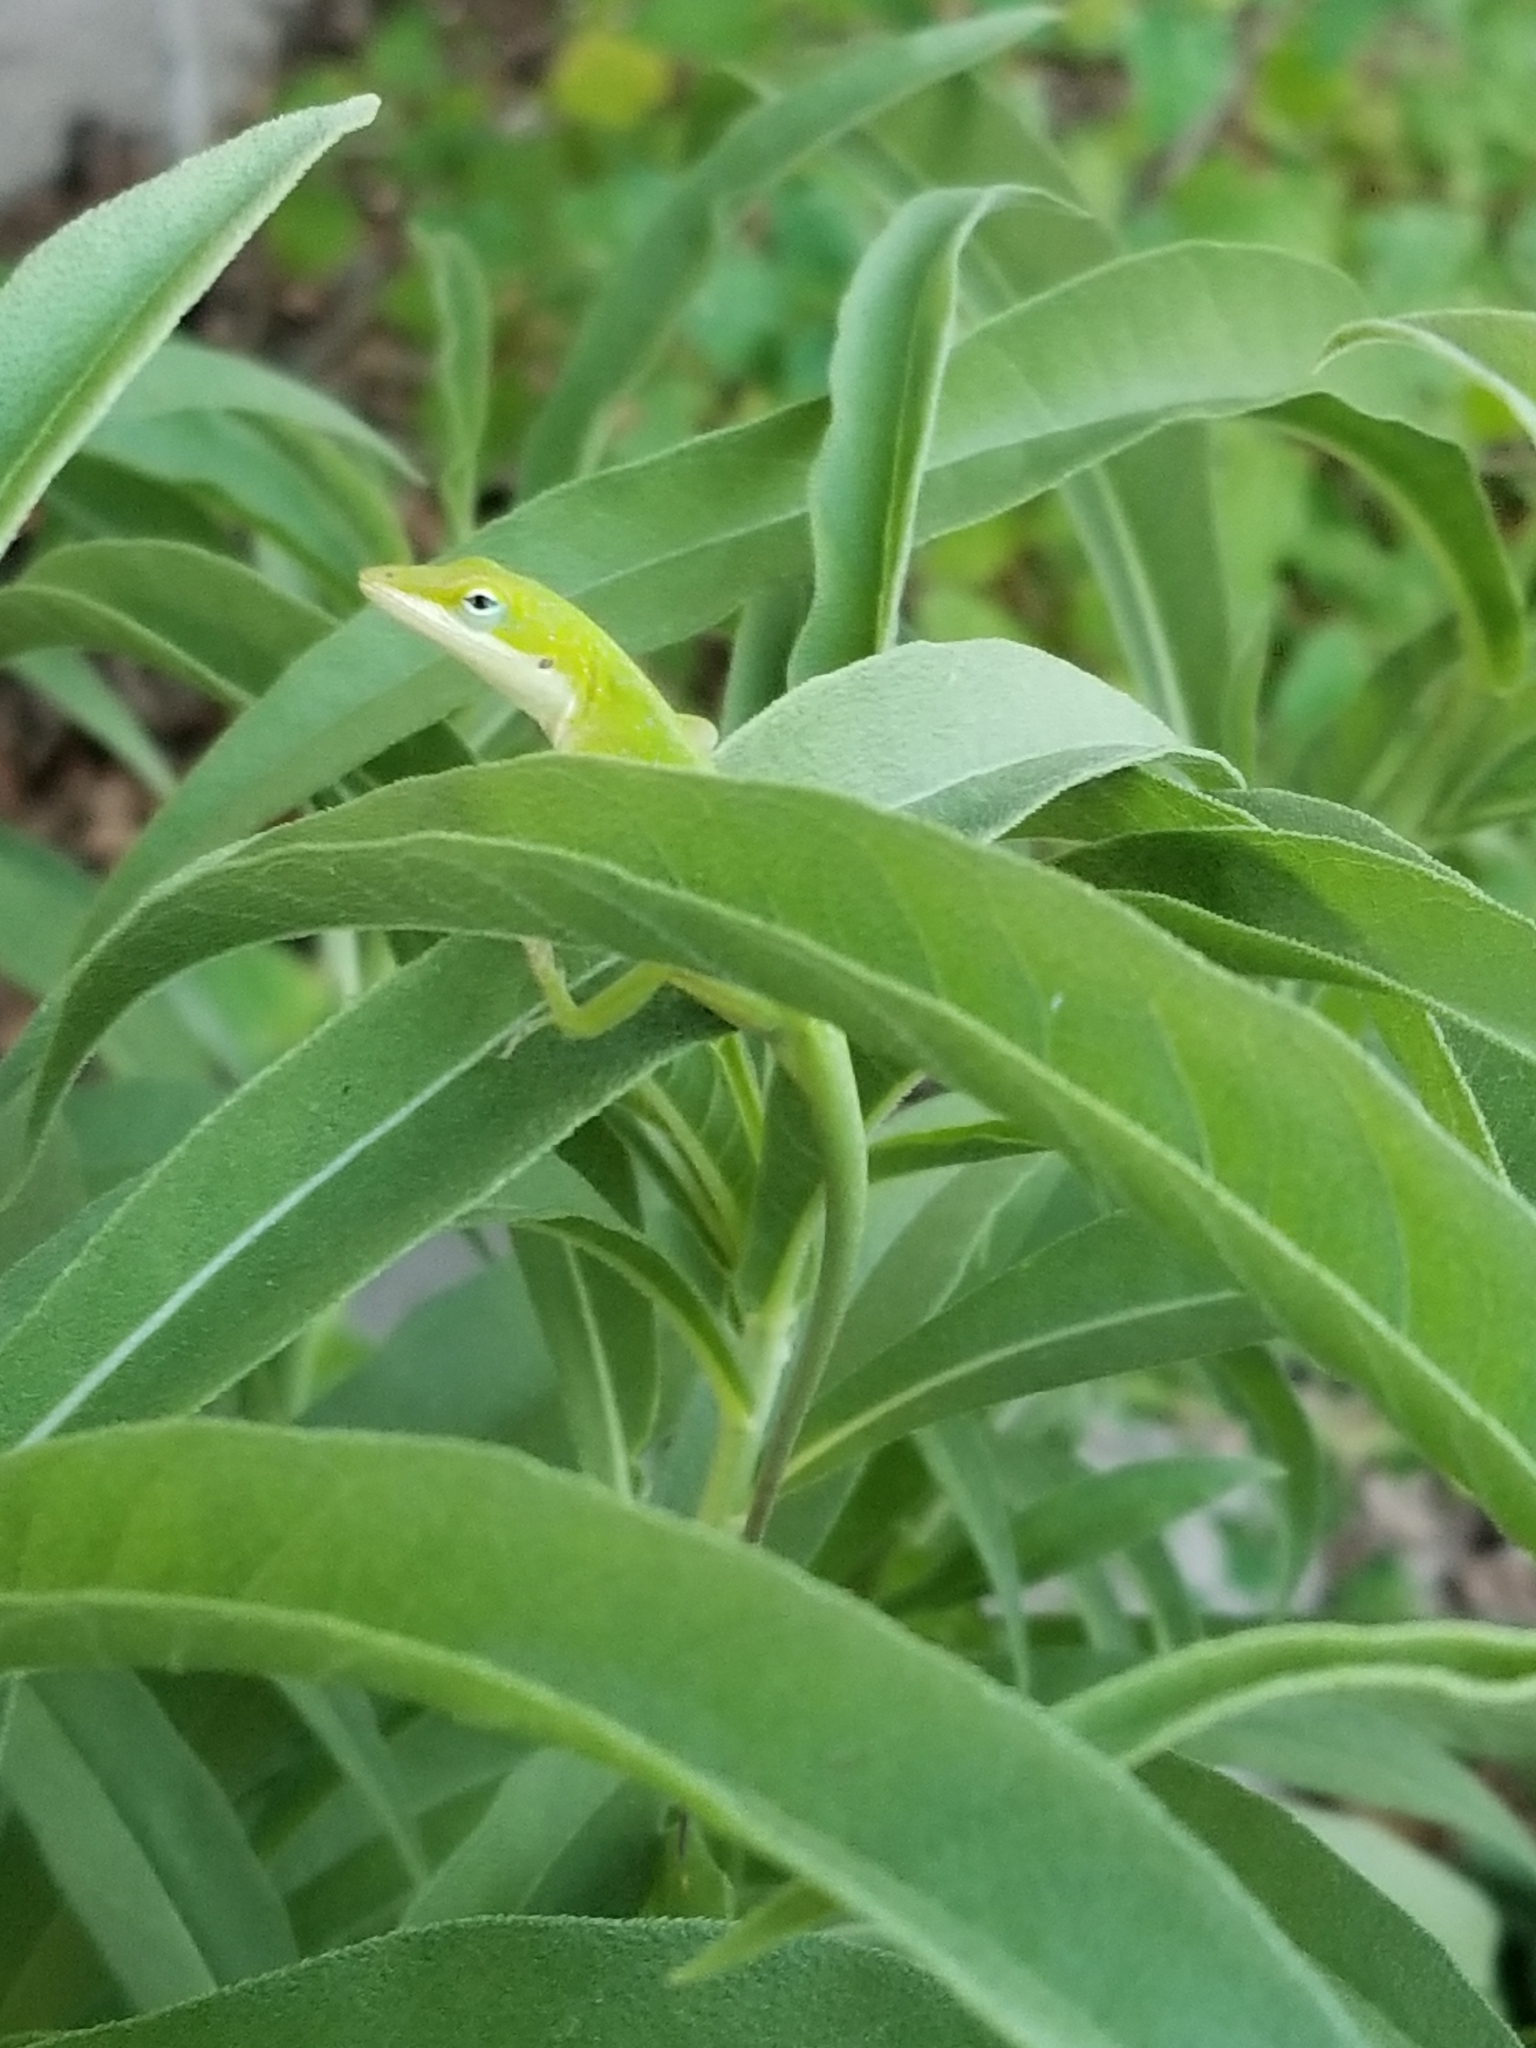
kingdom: Animalia
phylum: Chordata
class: Squamata
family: Dactyloidae
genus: Anolis
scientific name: Anolis carolinensis
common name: Green anole
